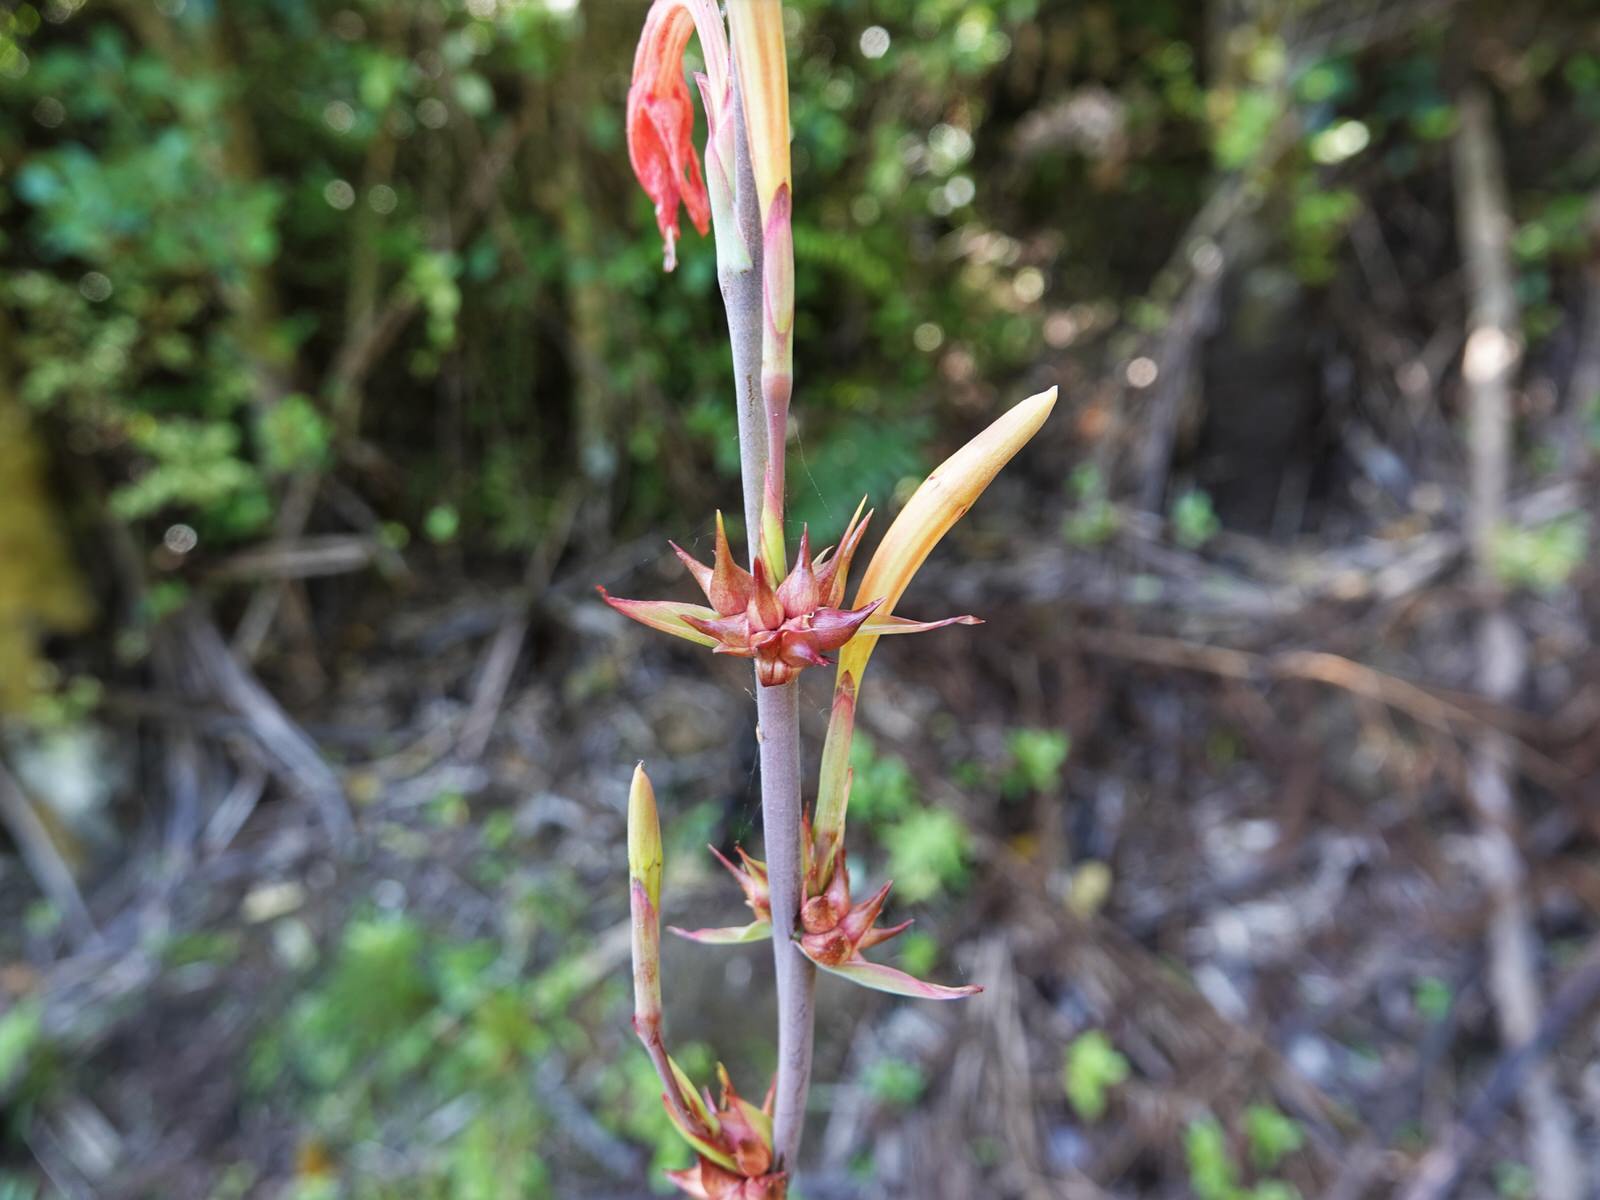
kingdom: Plantae
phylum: Tracheophyta
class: Liliopsida
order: Asparagales
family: Iridaceae
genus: Watsonia
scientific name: Watsonia meriana
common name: Bulbil bugle-lily
